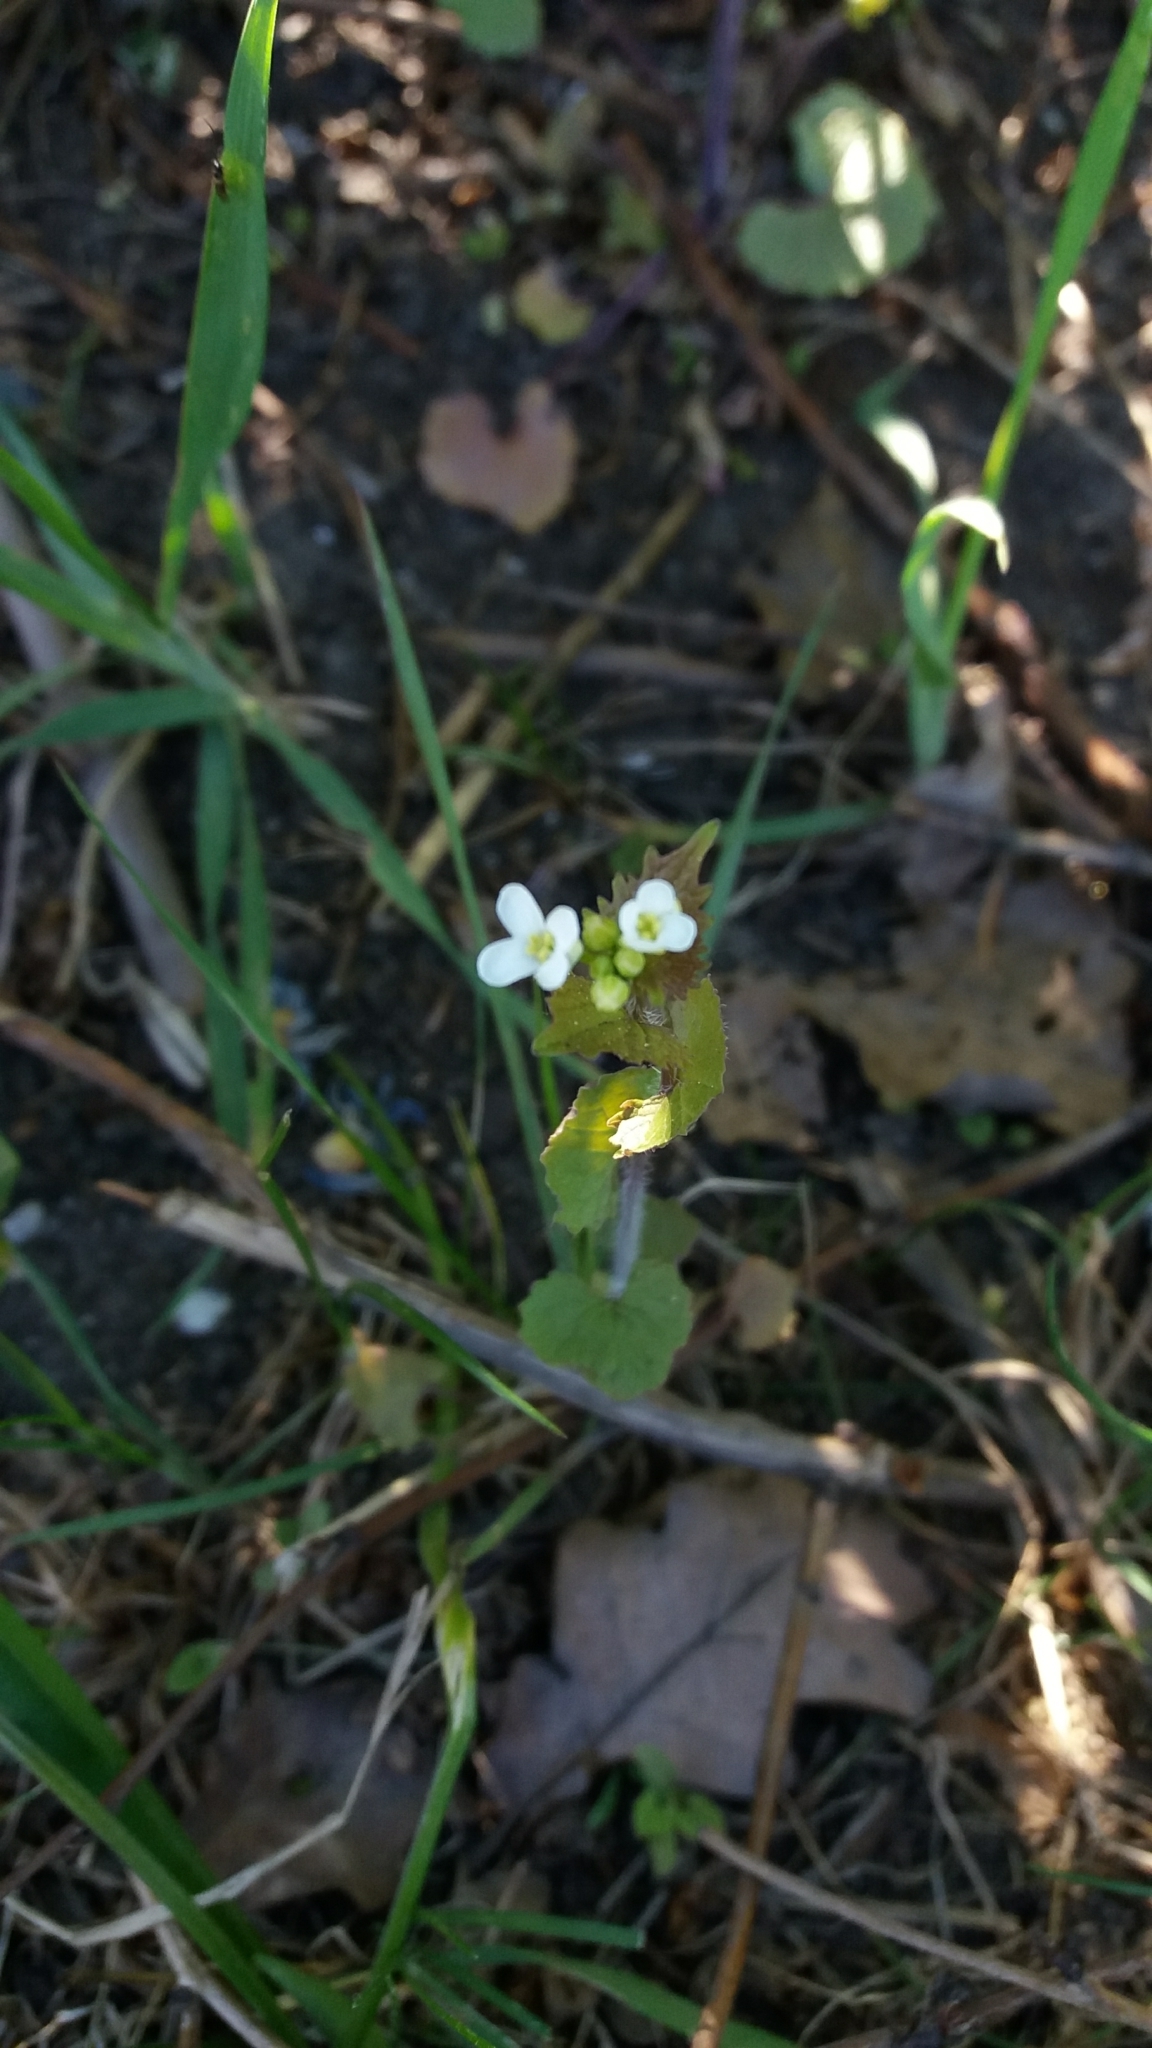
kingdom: Plantae
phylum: Tracheophyta
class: Magnoliopsida
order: Brassicales
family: Brassicaceae
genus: Alliaria
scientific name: Alliaria petiolata
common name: Garlic mustard
